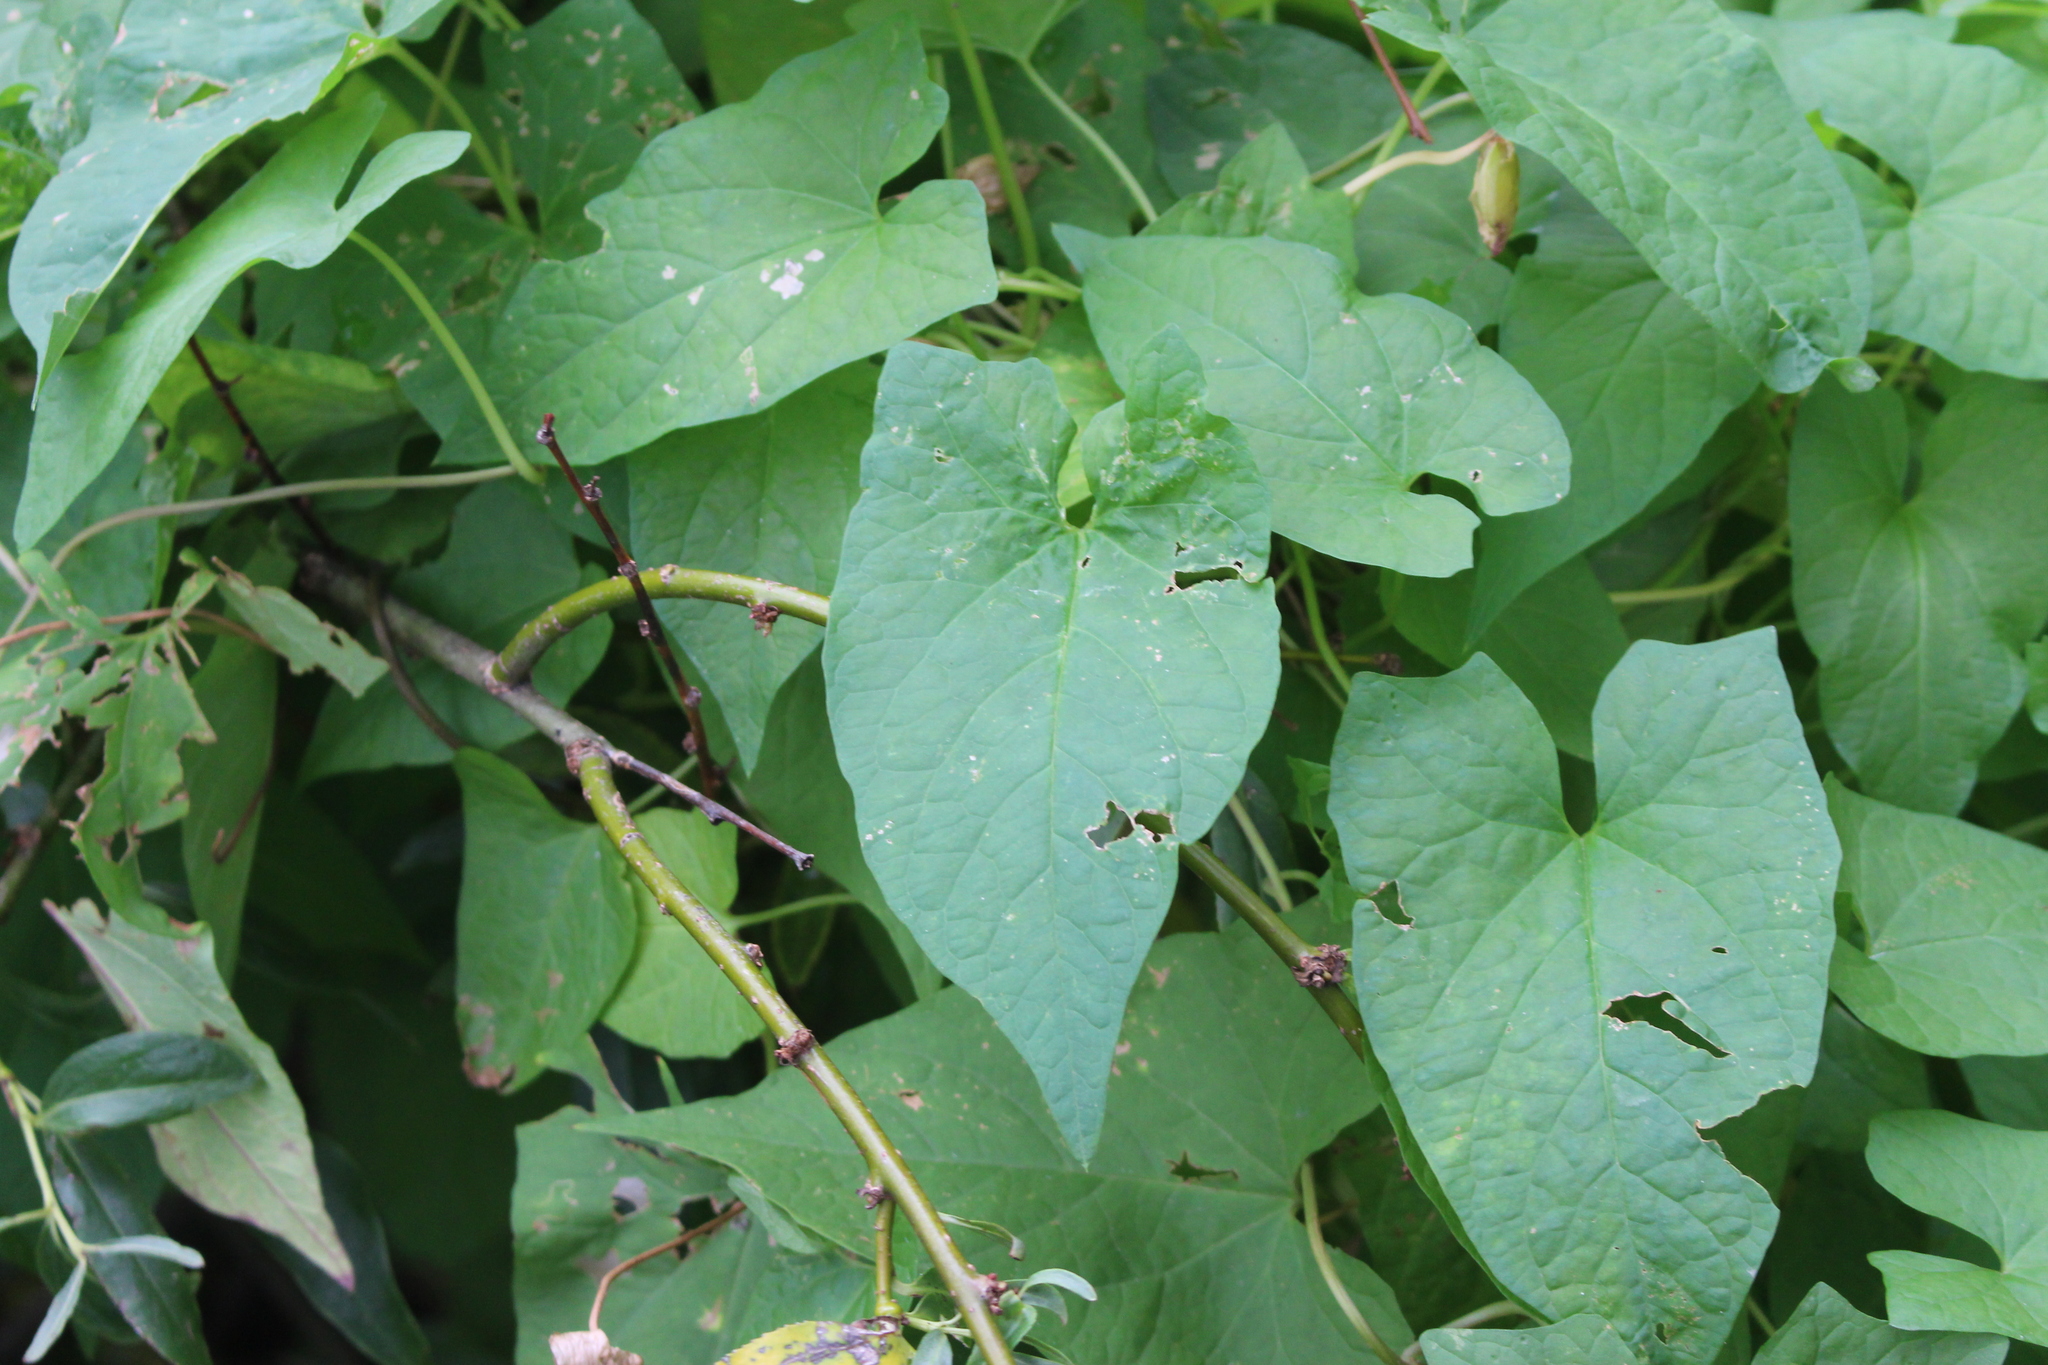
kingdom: Plantae
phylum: Tracheophyta
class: Magnoliopsida
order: Solanales
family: Convolvulaceae
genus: Calystegia
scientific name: Calystegia silvatica
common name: Large bindweed
